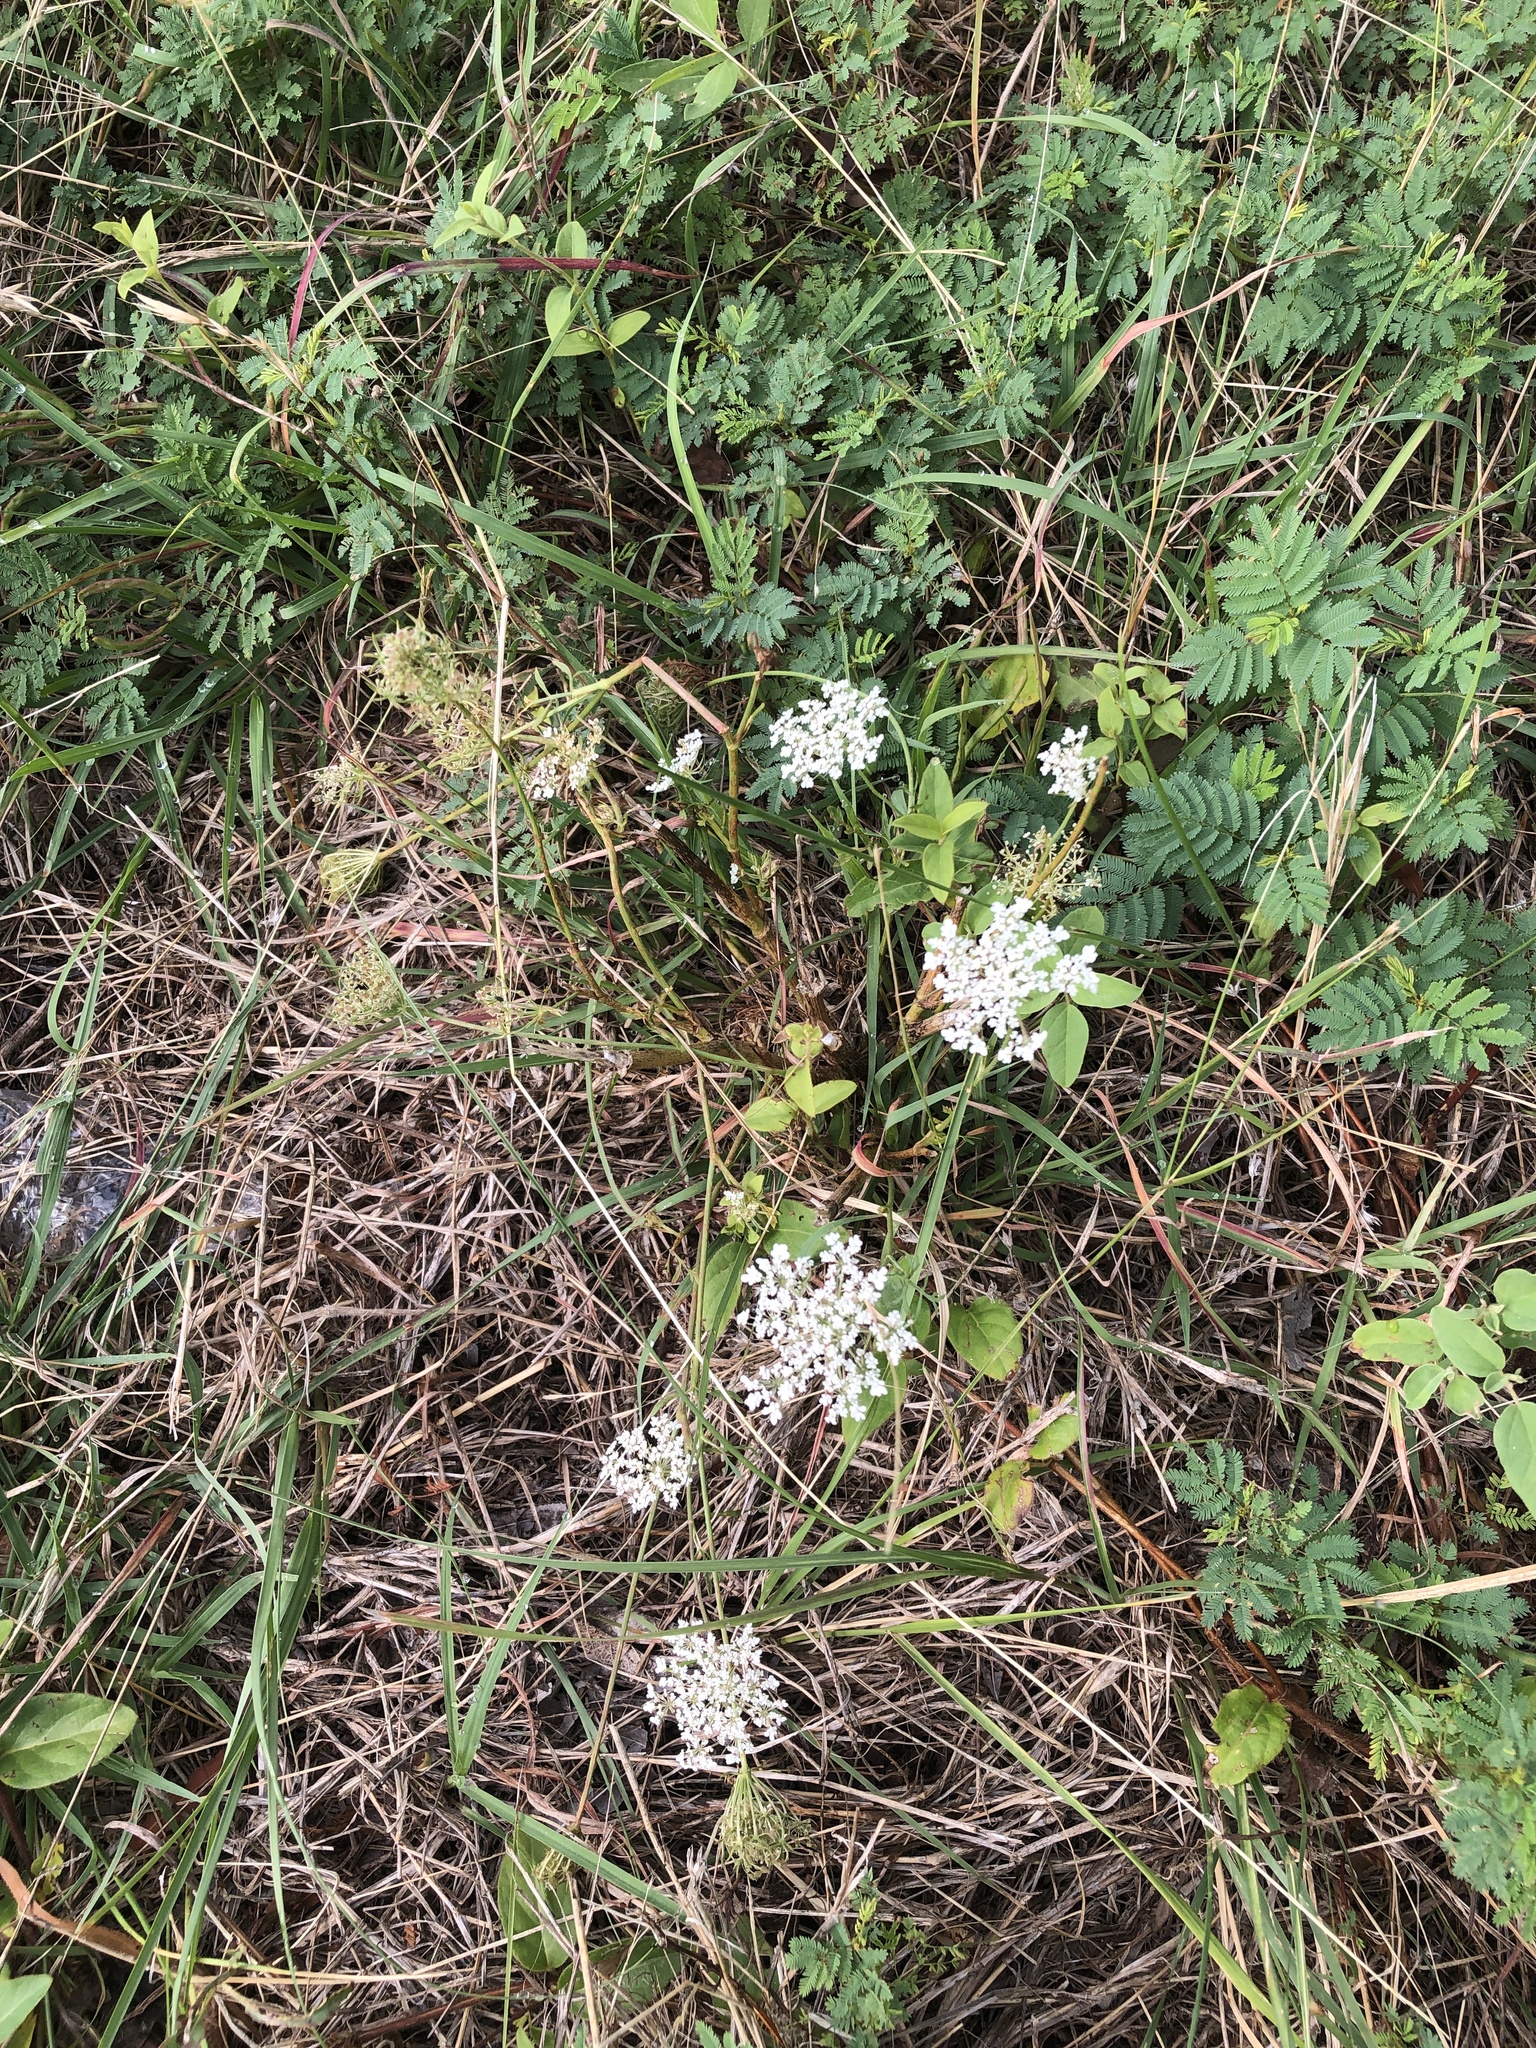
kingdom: Plantae
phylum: Tracheophyta
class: Magnoliopsida
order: Apiales
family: Apiaceae
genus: Daucus
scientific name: Daucus carota
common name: Wild carrot
